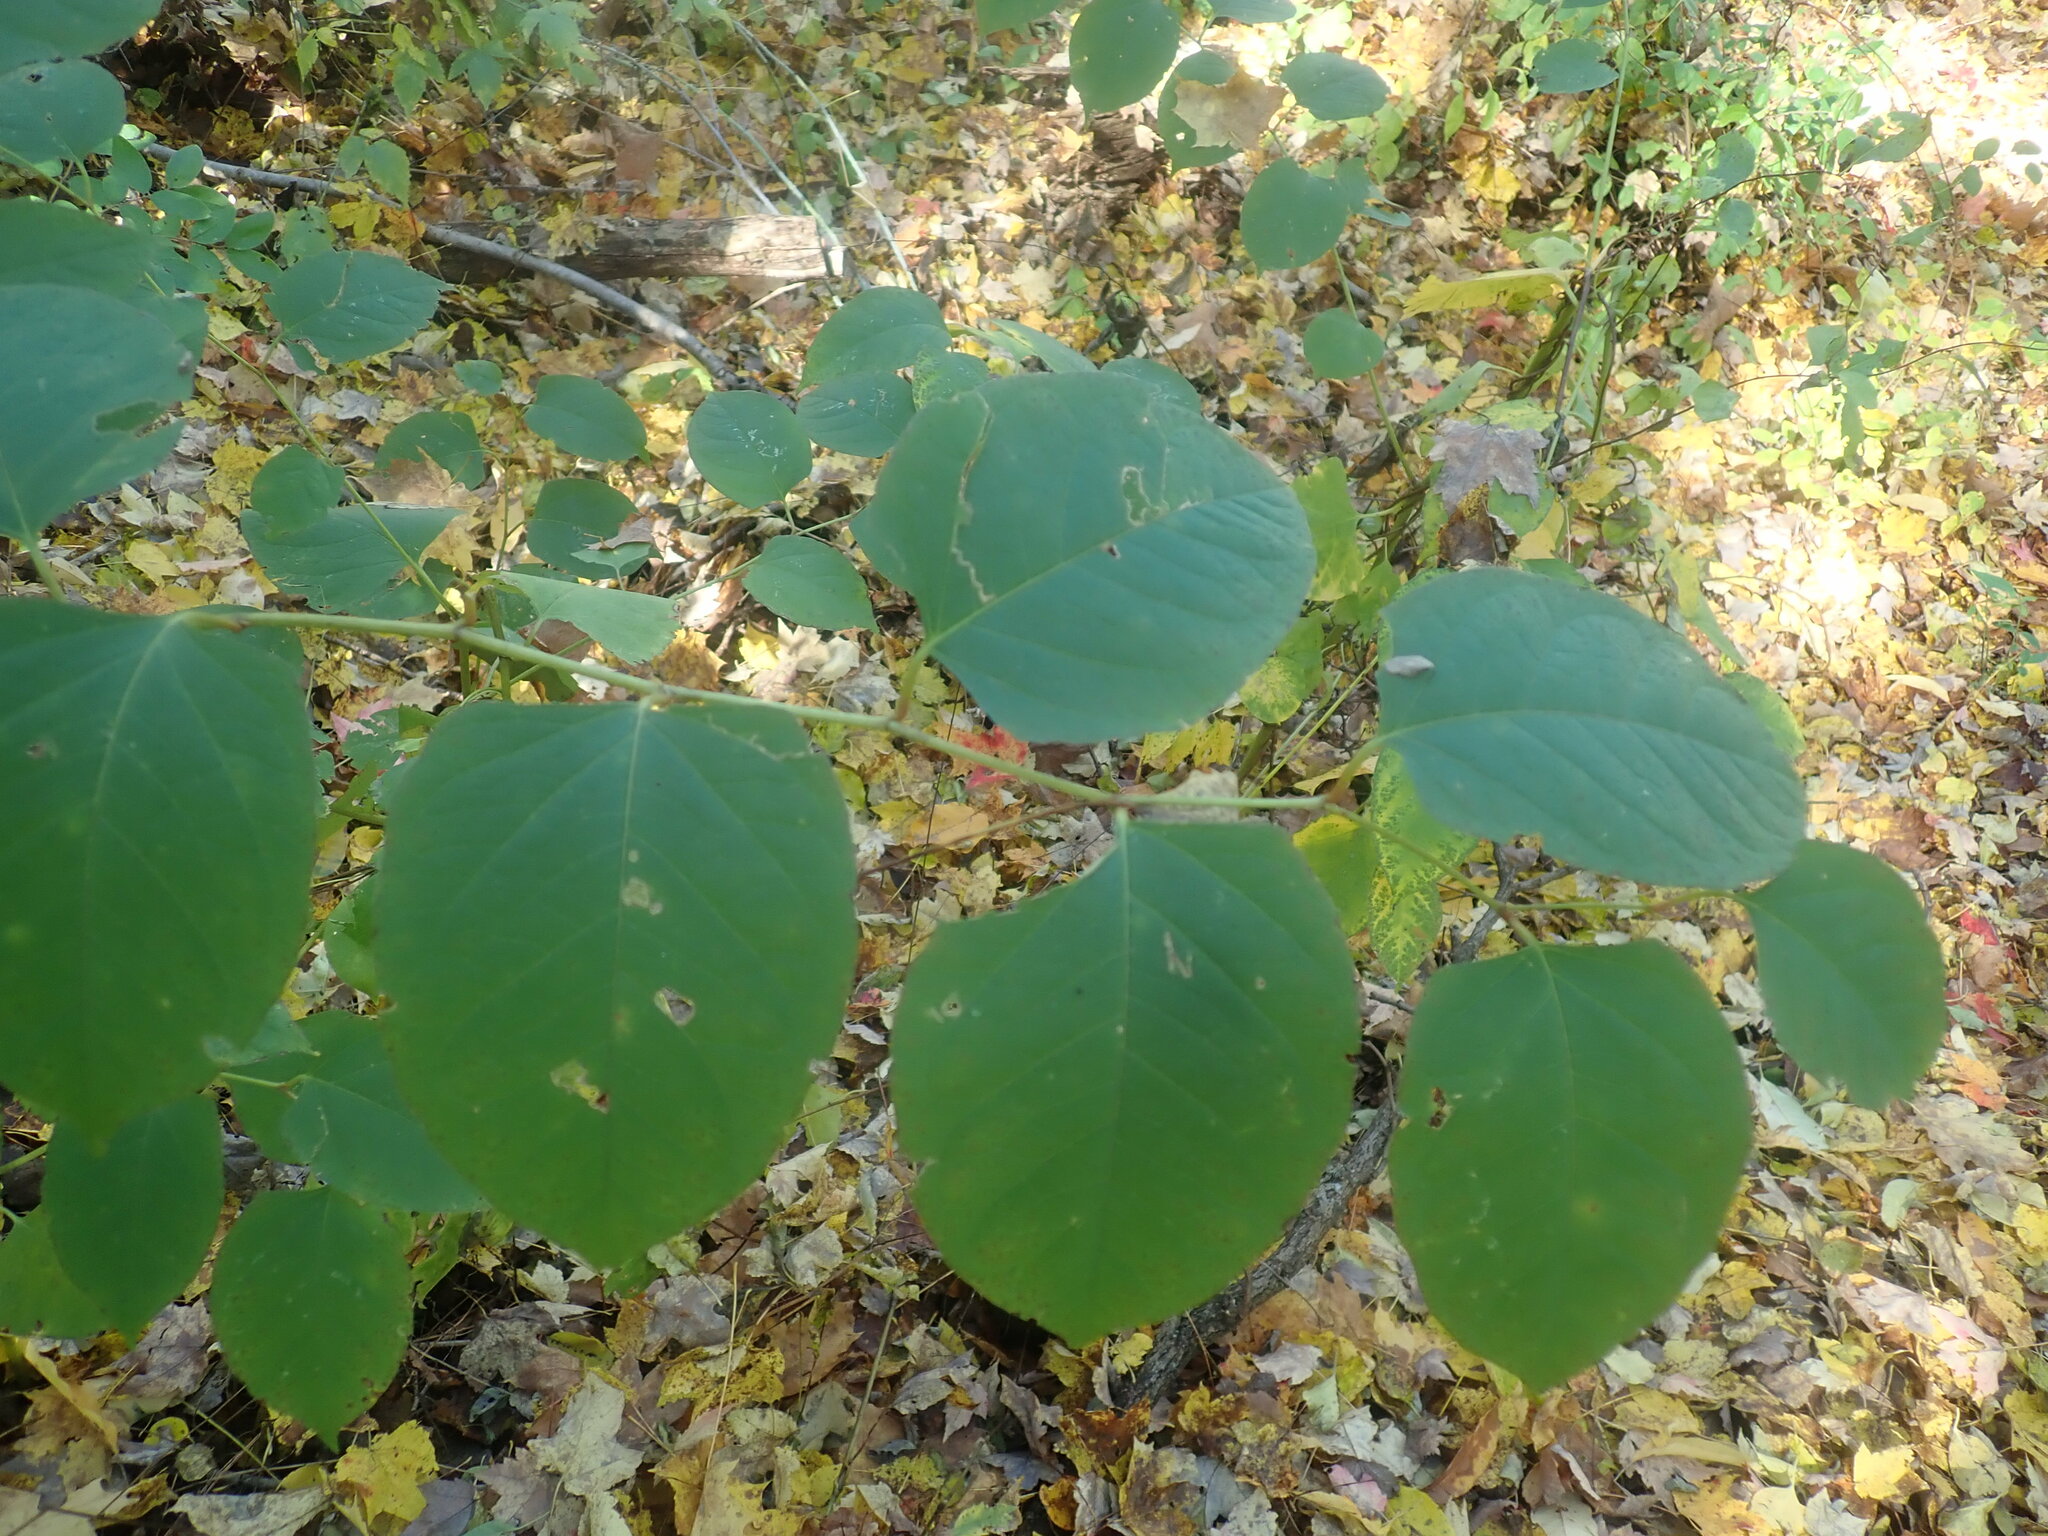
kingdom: Plantae
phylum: Tracheophyta
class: Magnoliopsida
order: Caryophyllales
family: Polygonaceae
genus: Reynoutria
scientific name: Reynoutria
